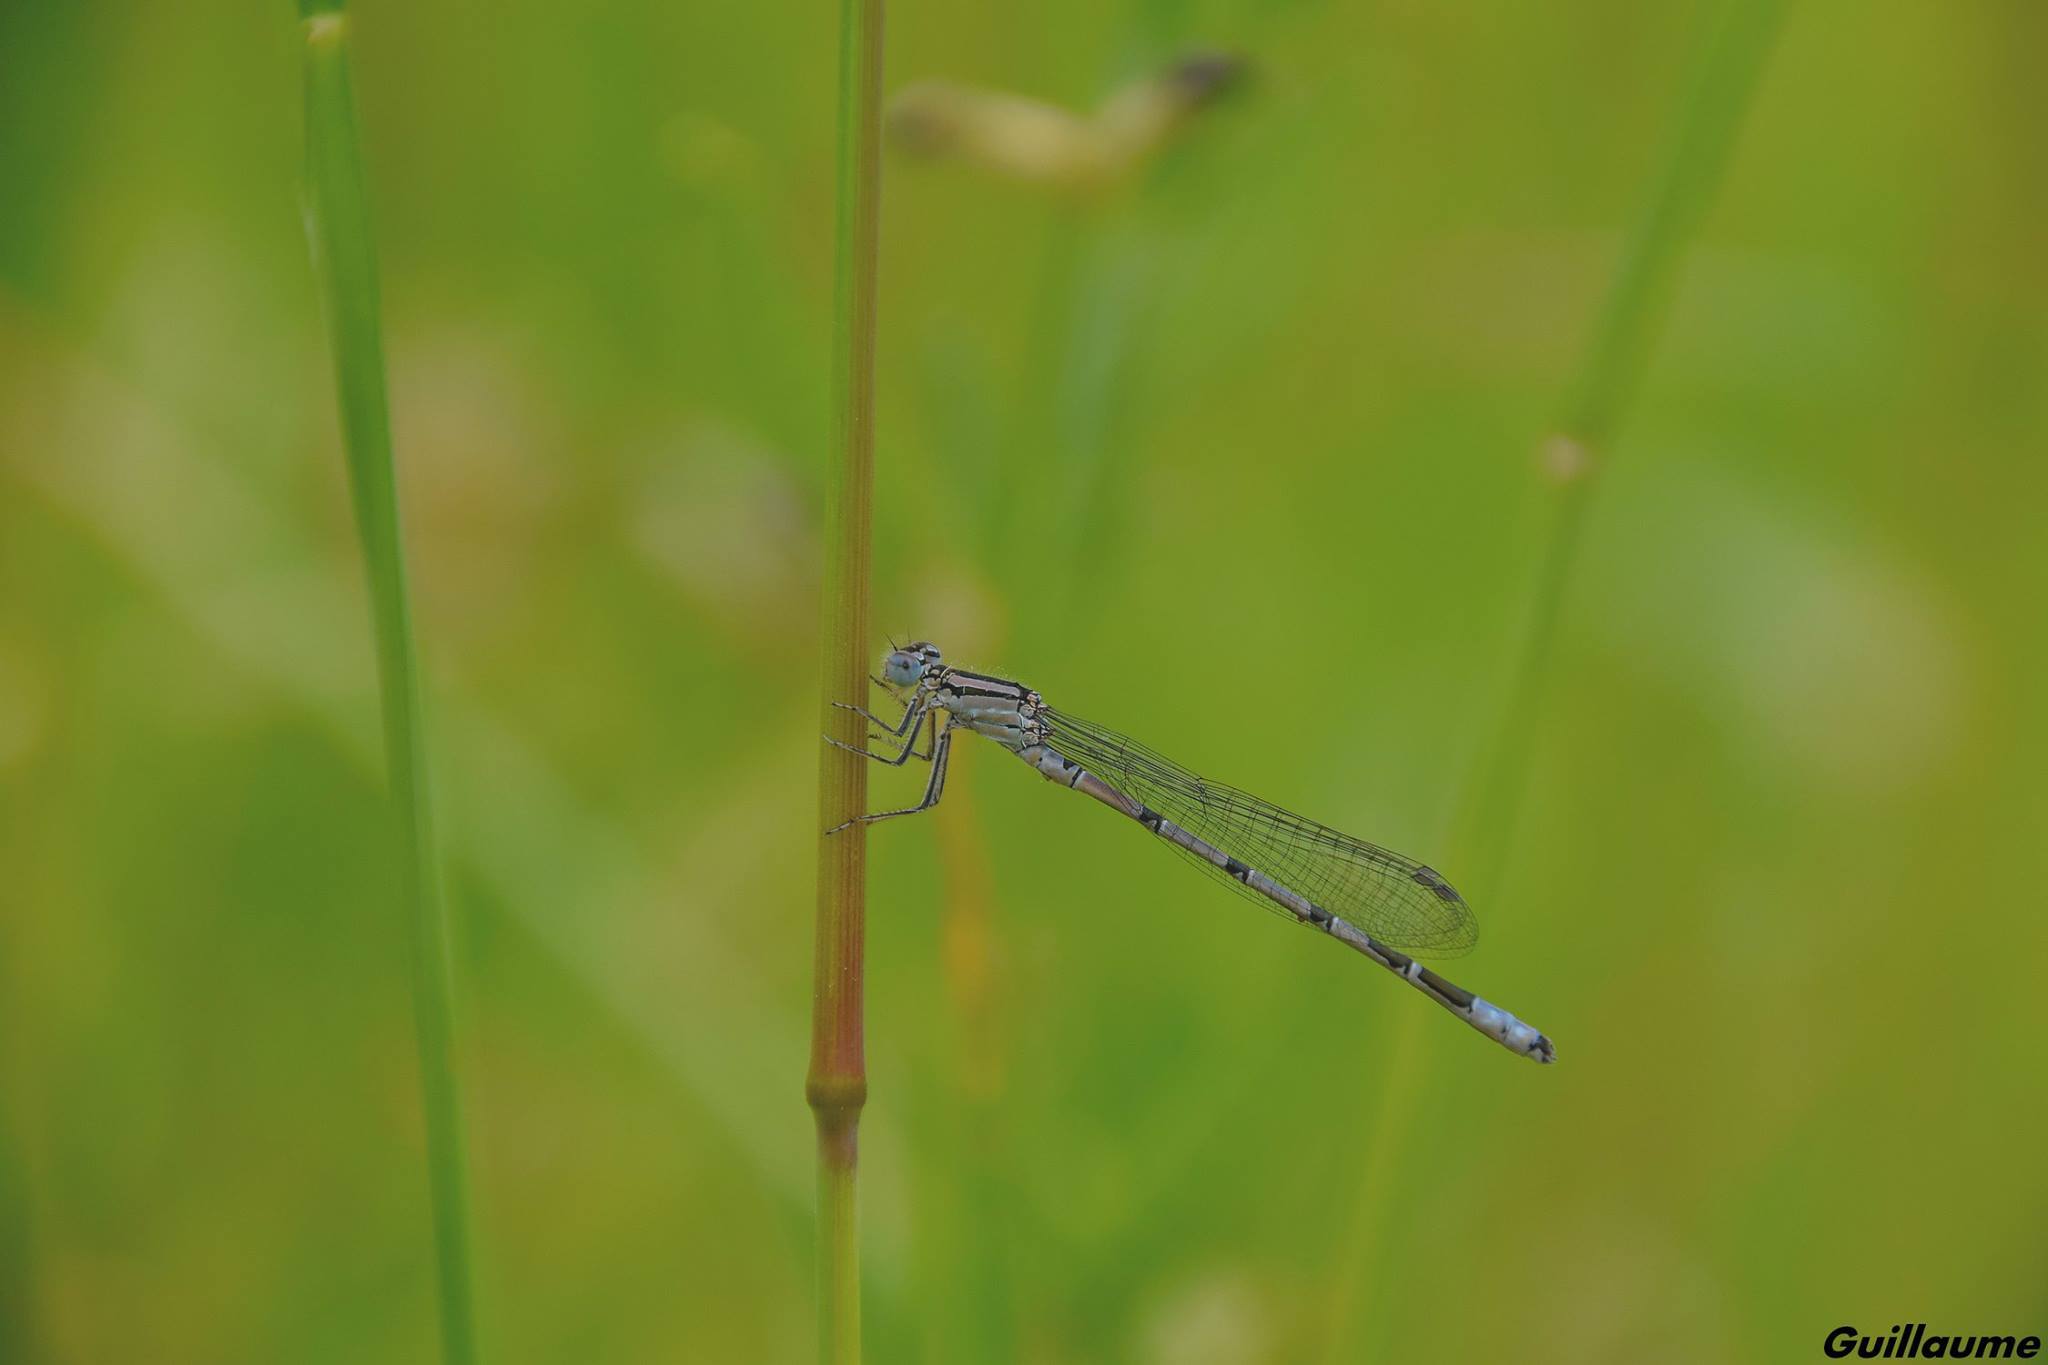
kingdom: Animalia
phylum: Arthropoda
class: Insecta
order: Odonata
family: Coenagrionidae
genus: Enallagma
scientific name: Enallagma cyathigerum
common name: Common blue damselfly
